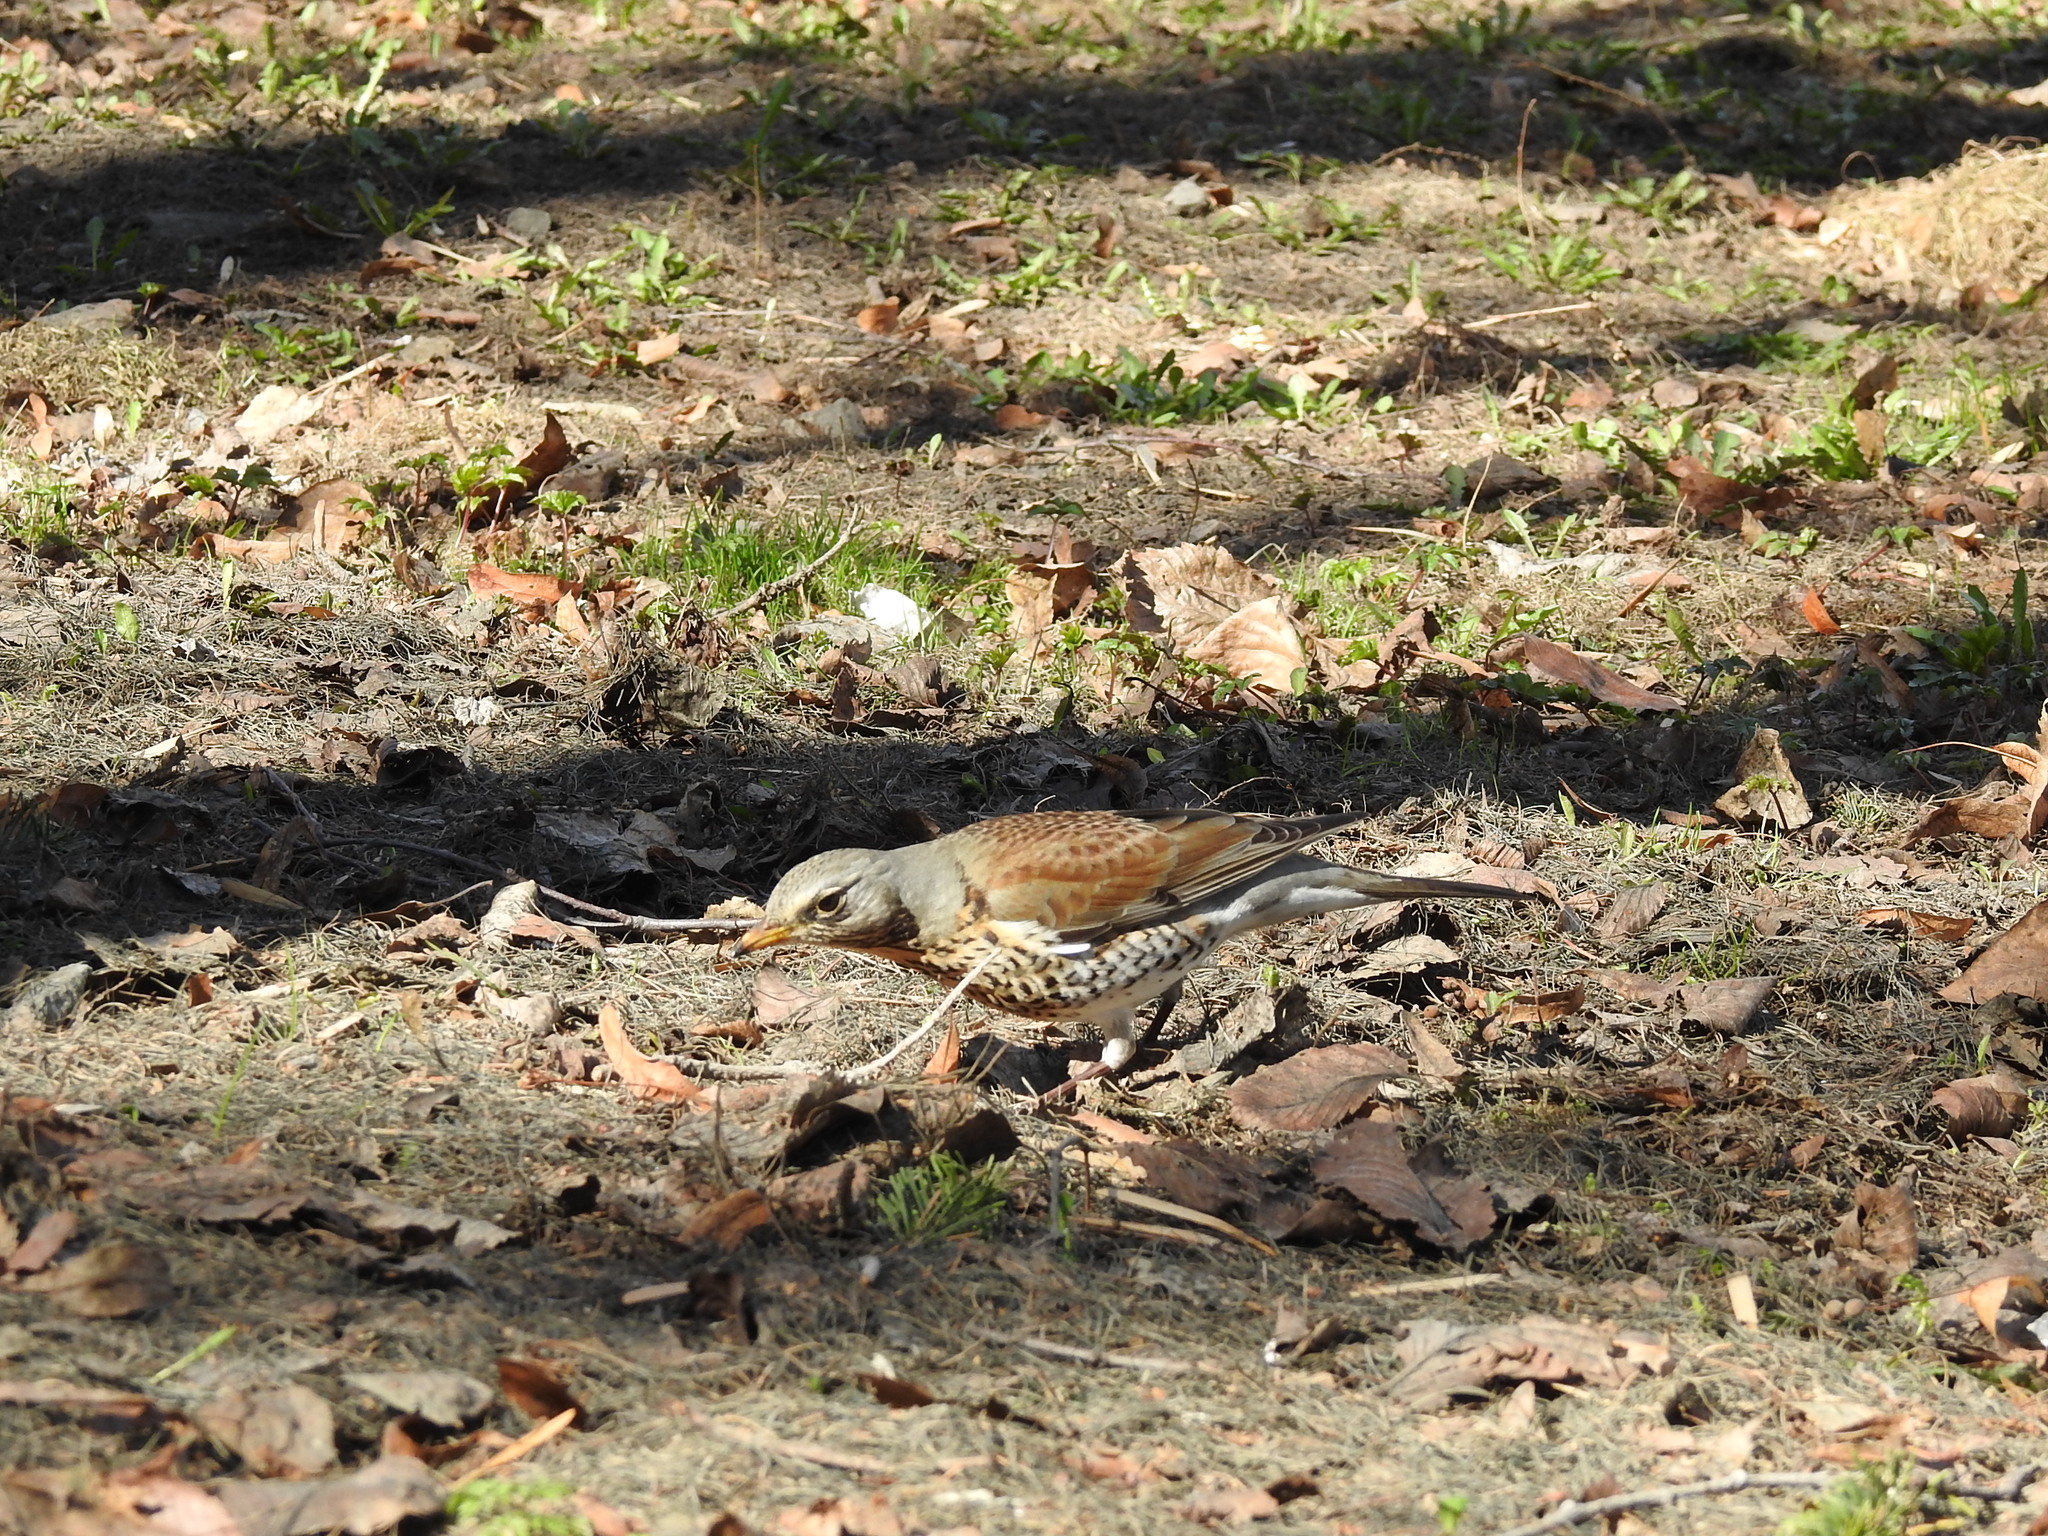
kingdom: Animalia
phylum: Chordata
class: Aves
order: Passeriformes
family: Turdidae
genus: Turdus
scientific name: Turdus pilaris
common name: Fieldfare
